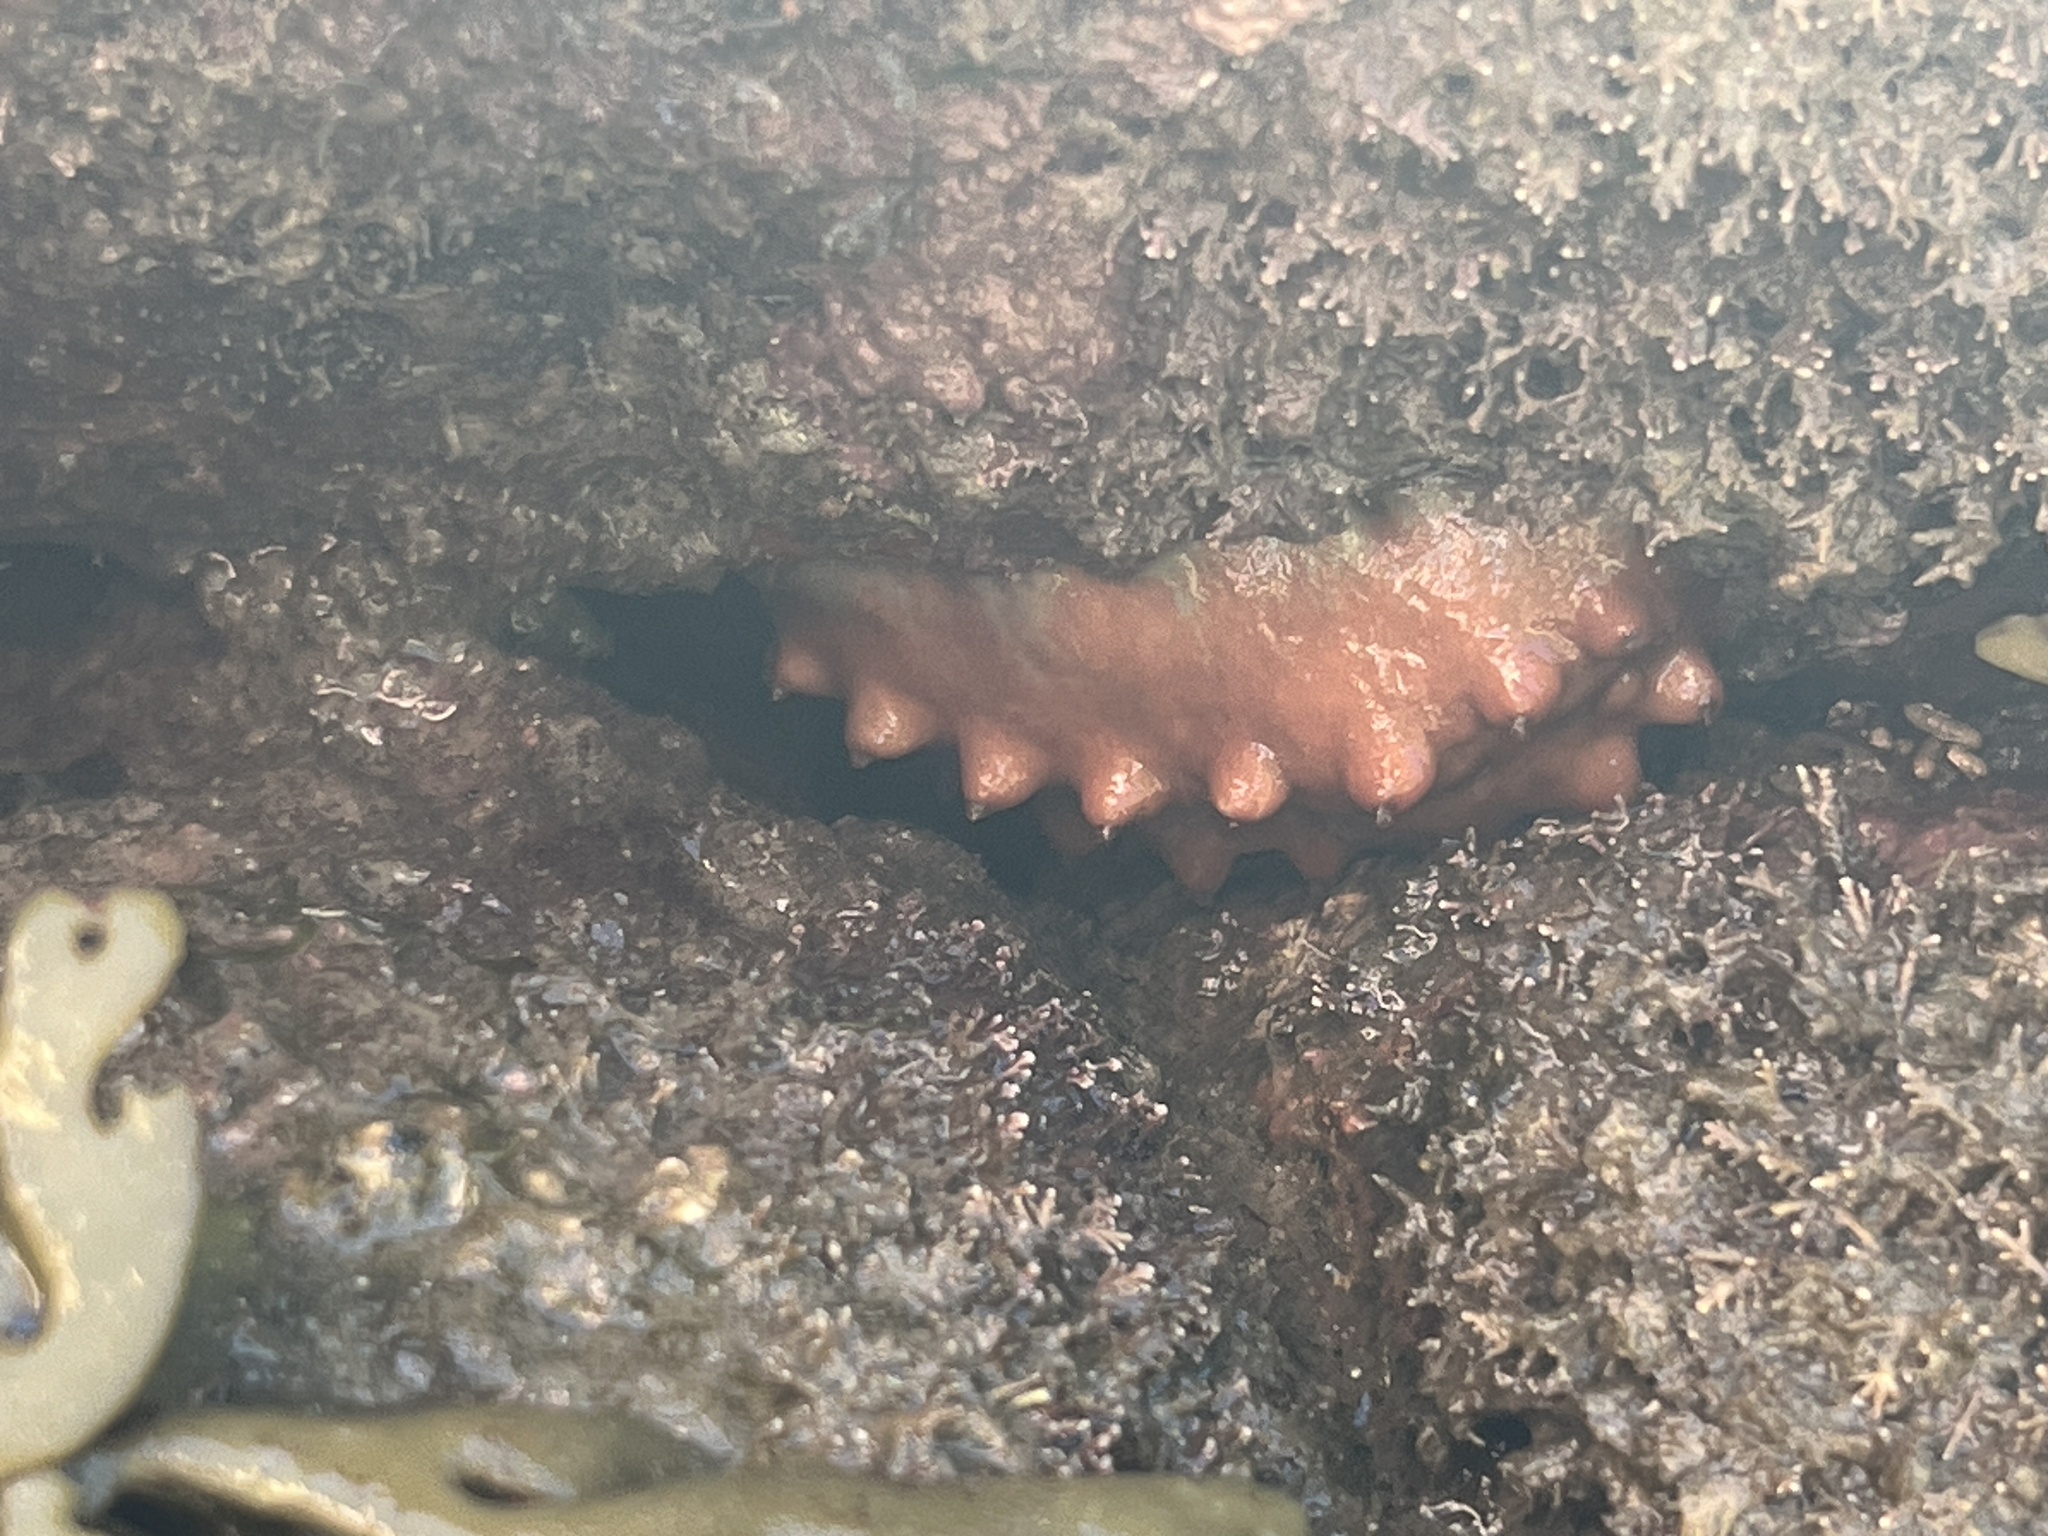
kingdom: Animalia
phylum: Mollusca
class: Polyplacophora
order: Chitonida
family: Acanthochitonidae
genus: Cryptoconchus
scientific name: Cryptoconchus porosus
